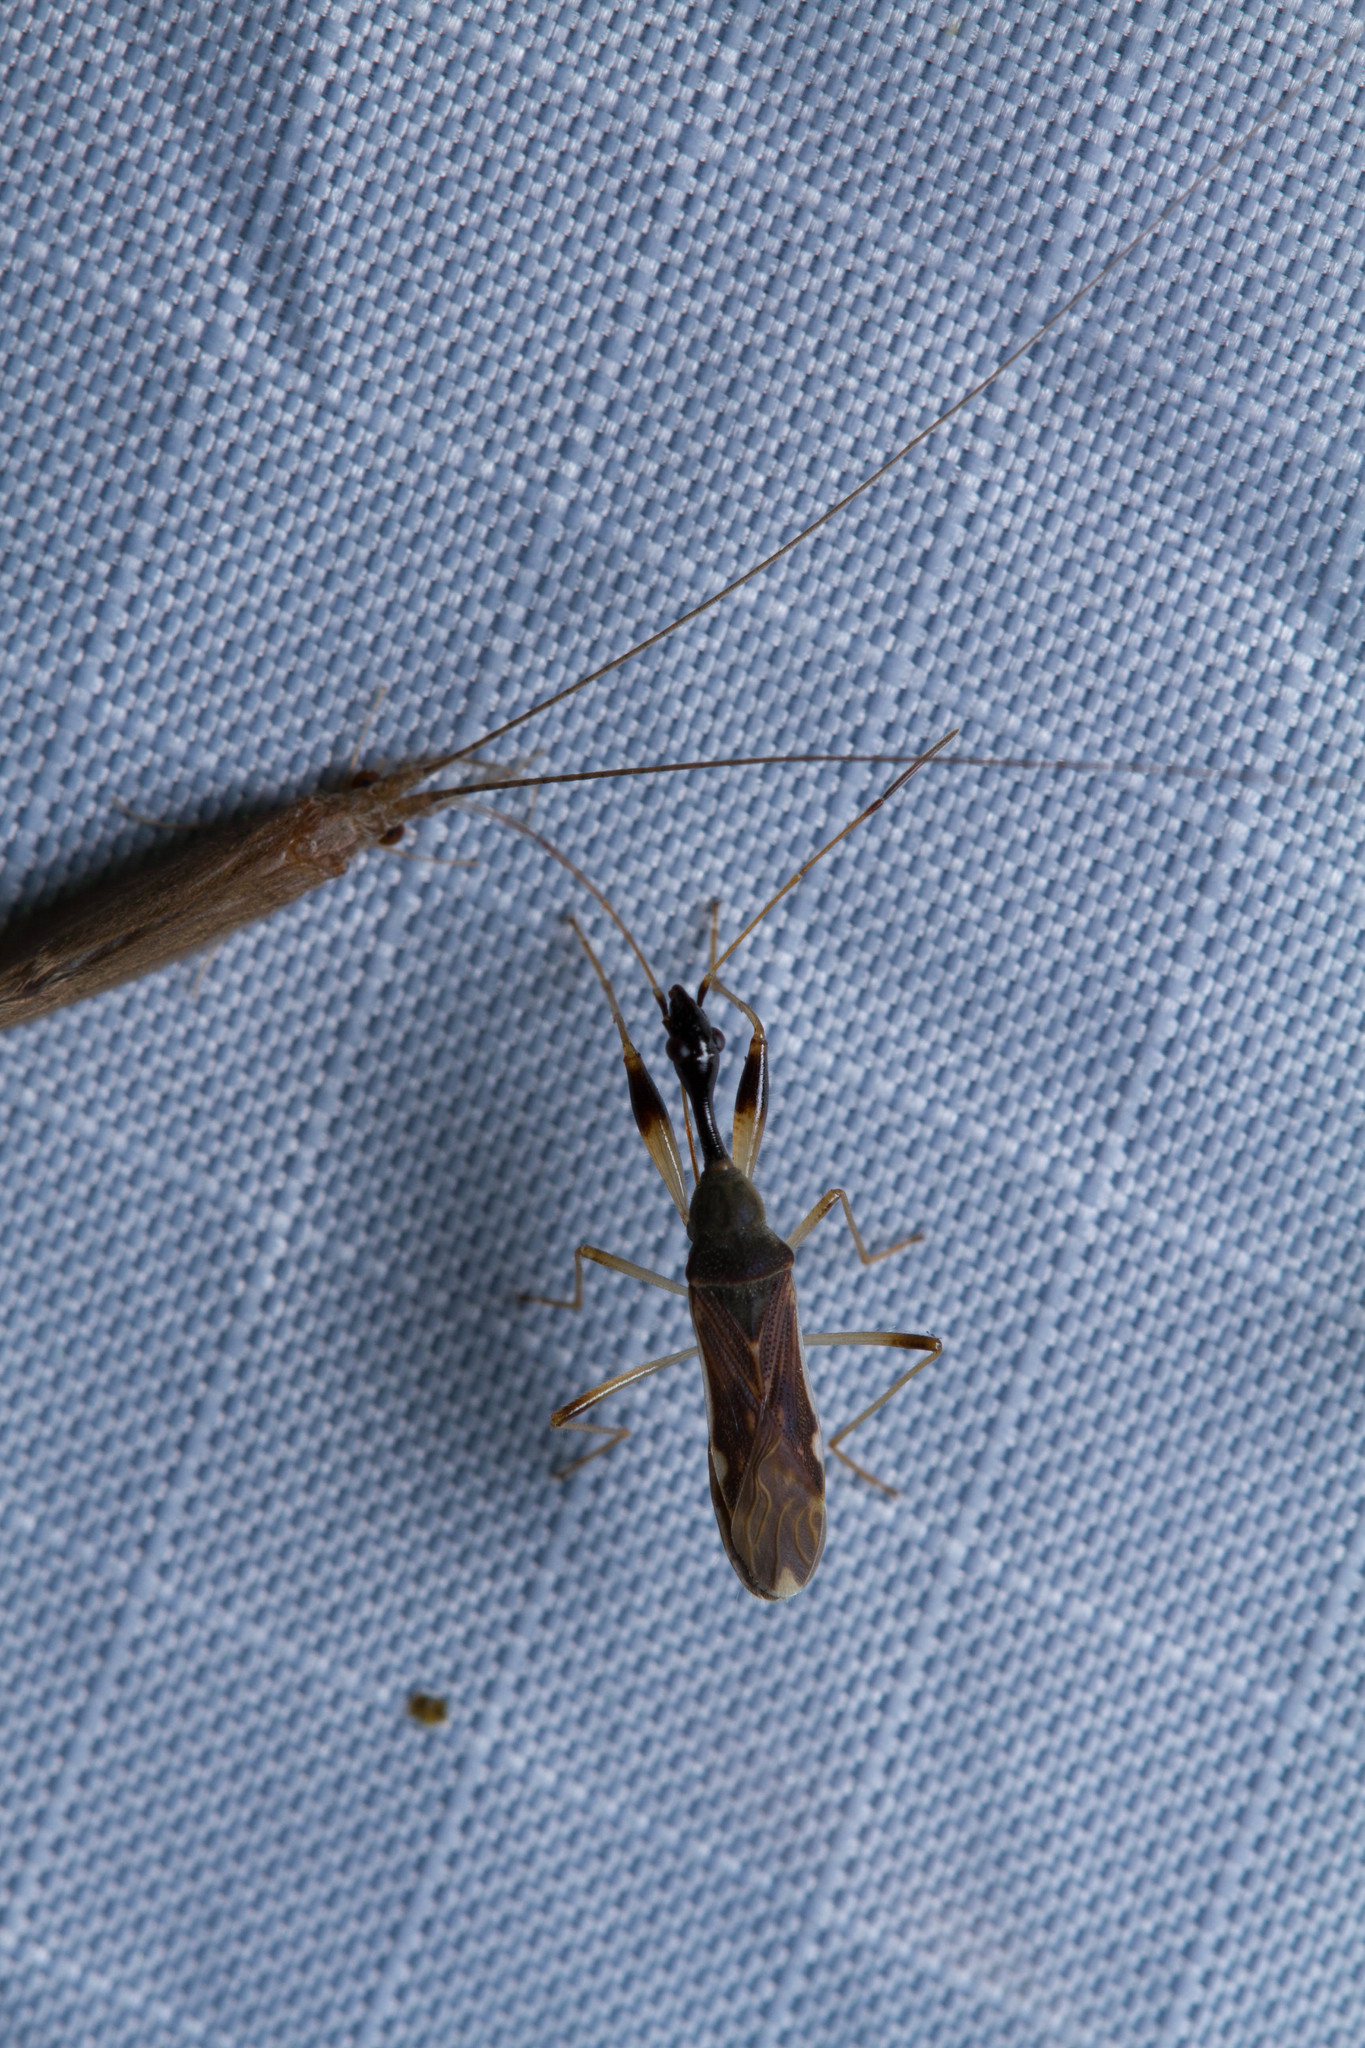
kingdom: Animalia
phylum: Arthropoda
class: Insecta
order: Hemiptera
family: Rhyparochromidae
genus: Myodocha
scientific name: Myodocha serripes
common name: Long-necked seed bug
